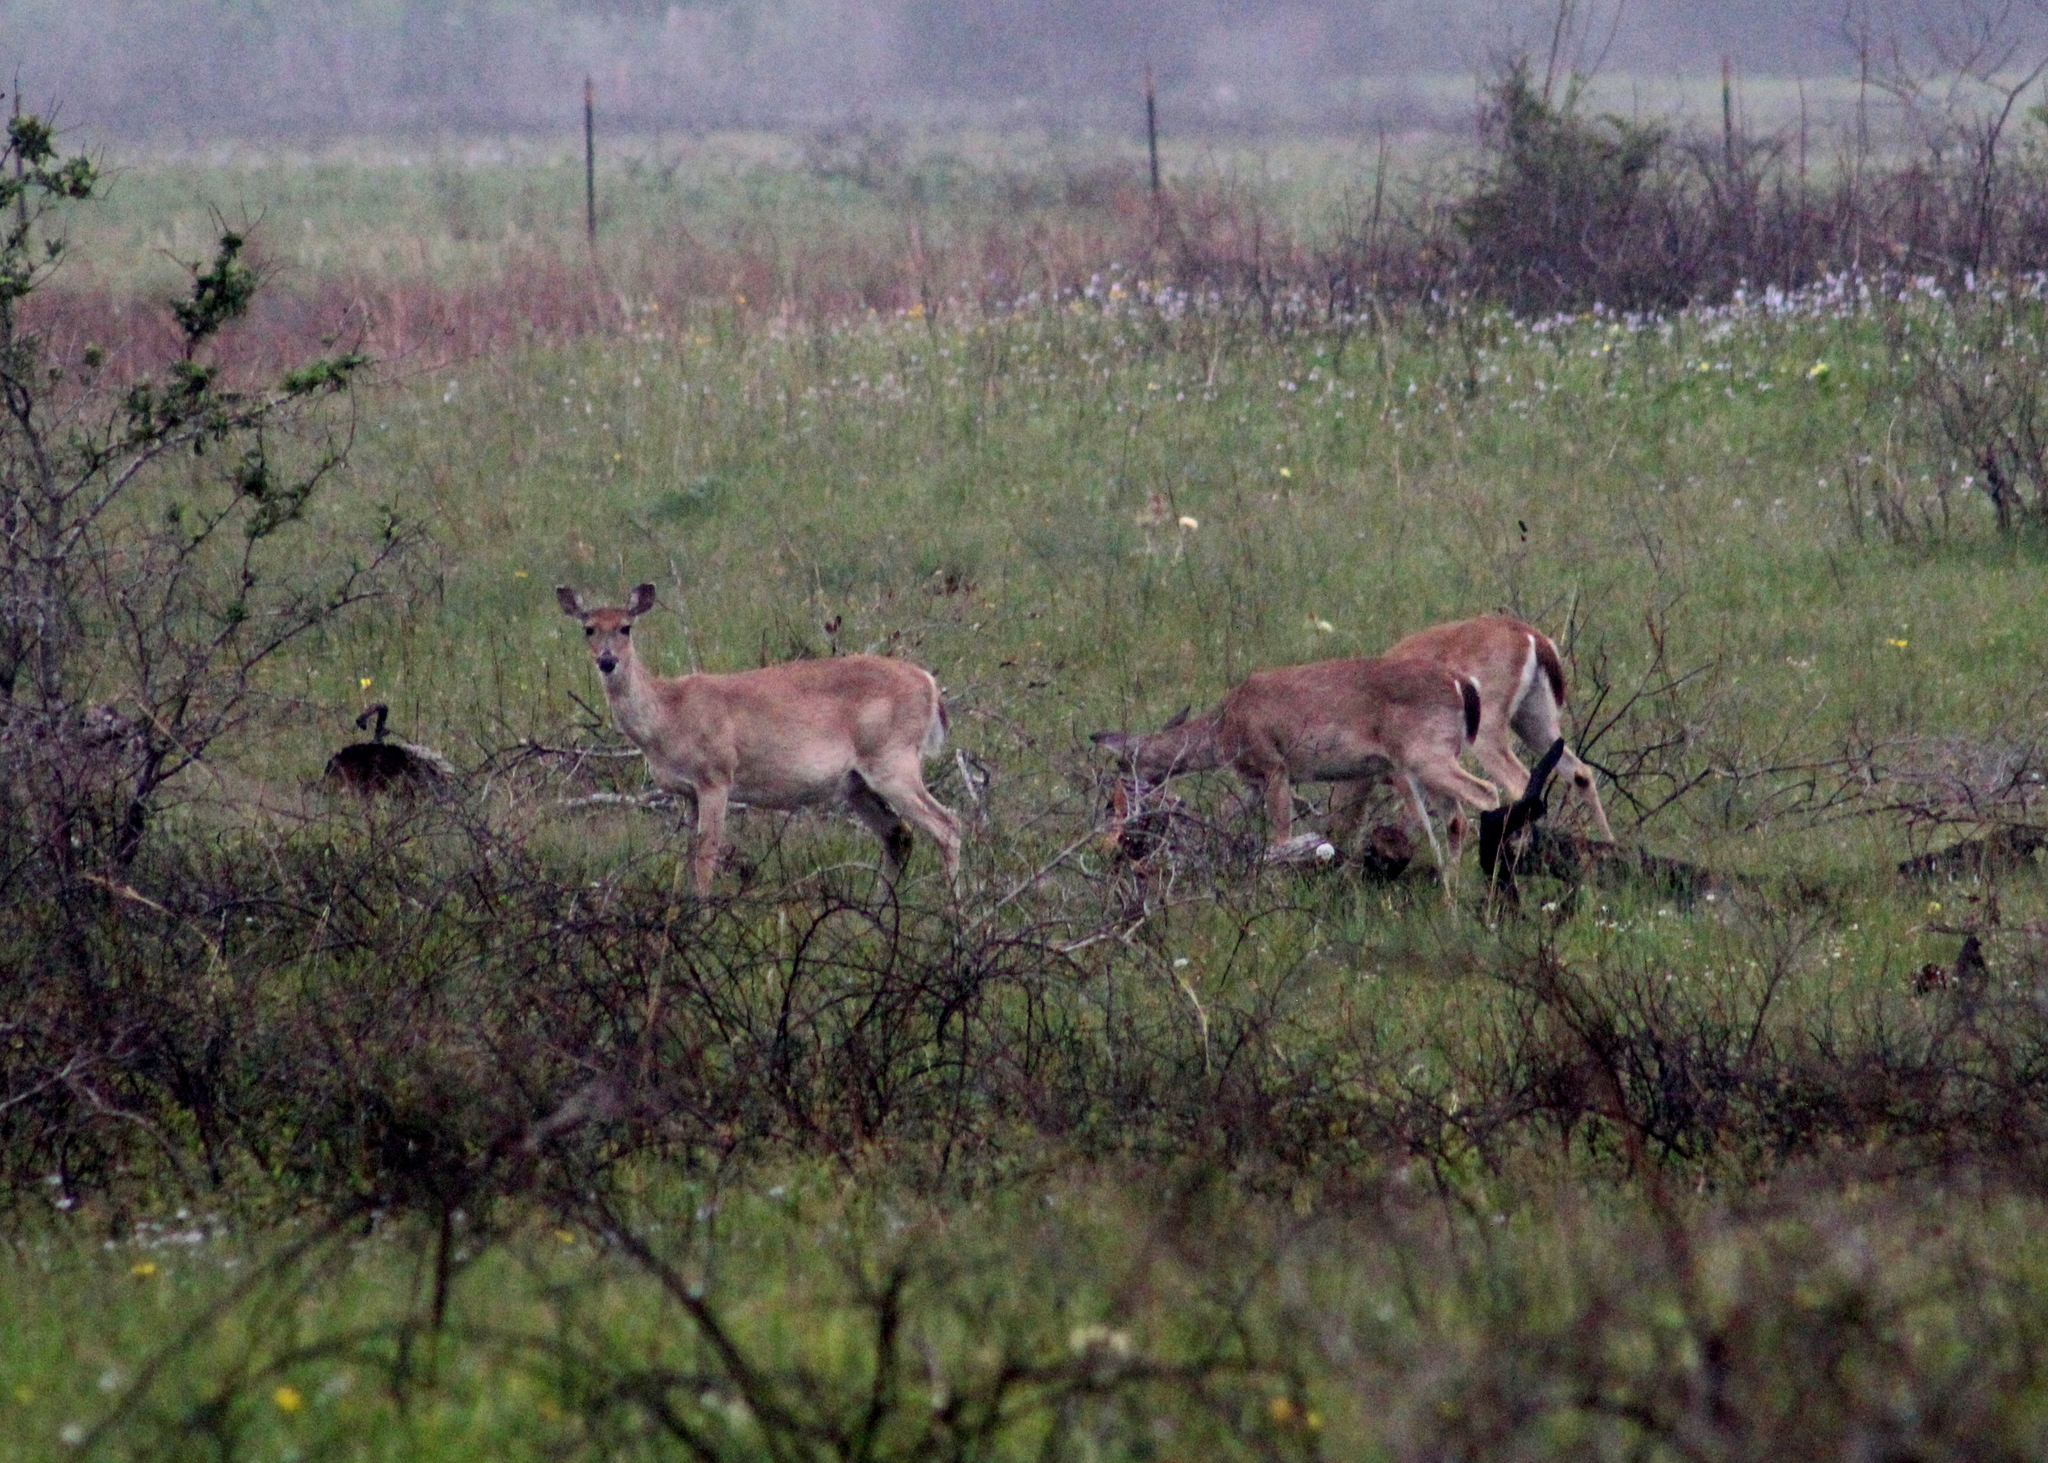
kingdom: Animalia
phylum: Chordata
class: Mammalia
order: Artiodactyla
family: Cervidae
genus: Odocoileus
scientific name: Odocoileus virginianus
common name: White-tailed deer
